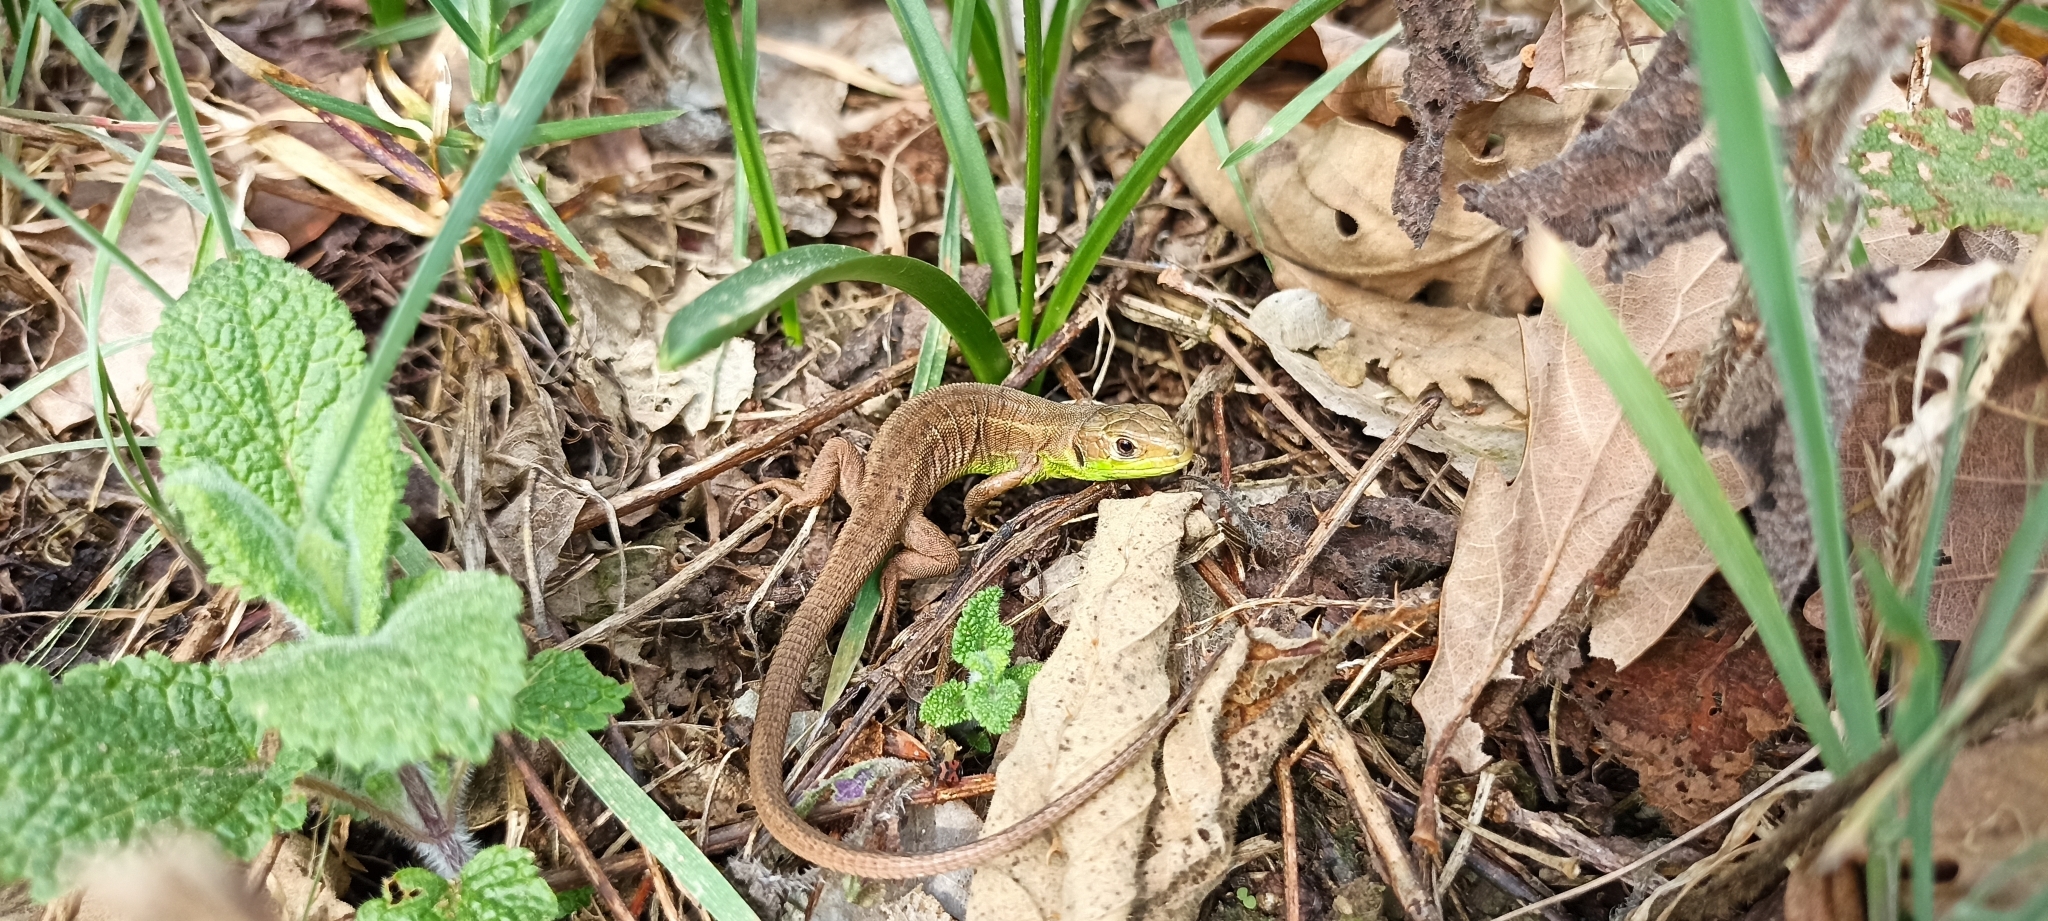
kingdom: Animalia
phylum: Chordata
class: Squamata
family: Lacertidae
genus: Lacerta
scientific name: Lacerta bilineata
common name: Western green lizard
